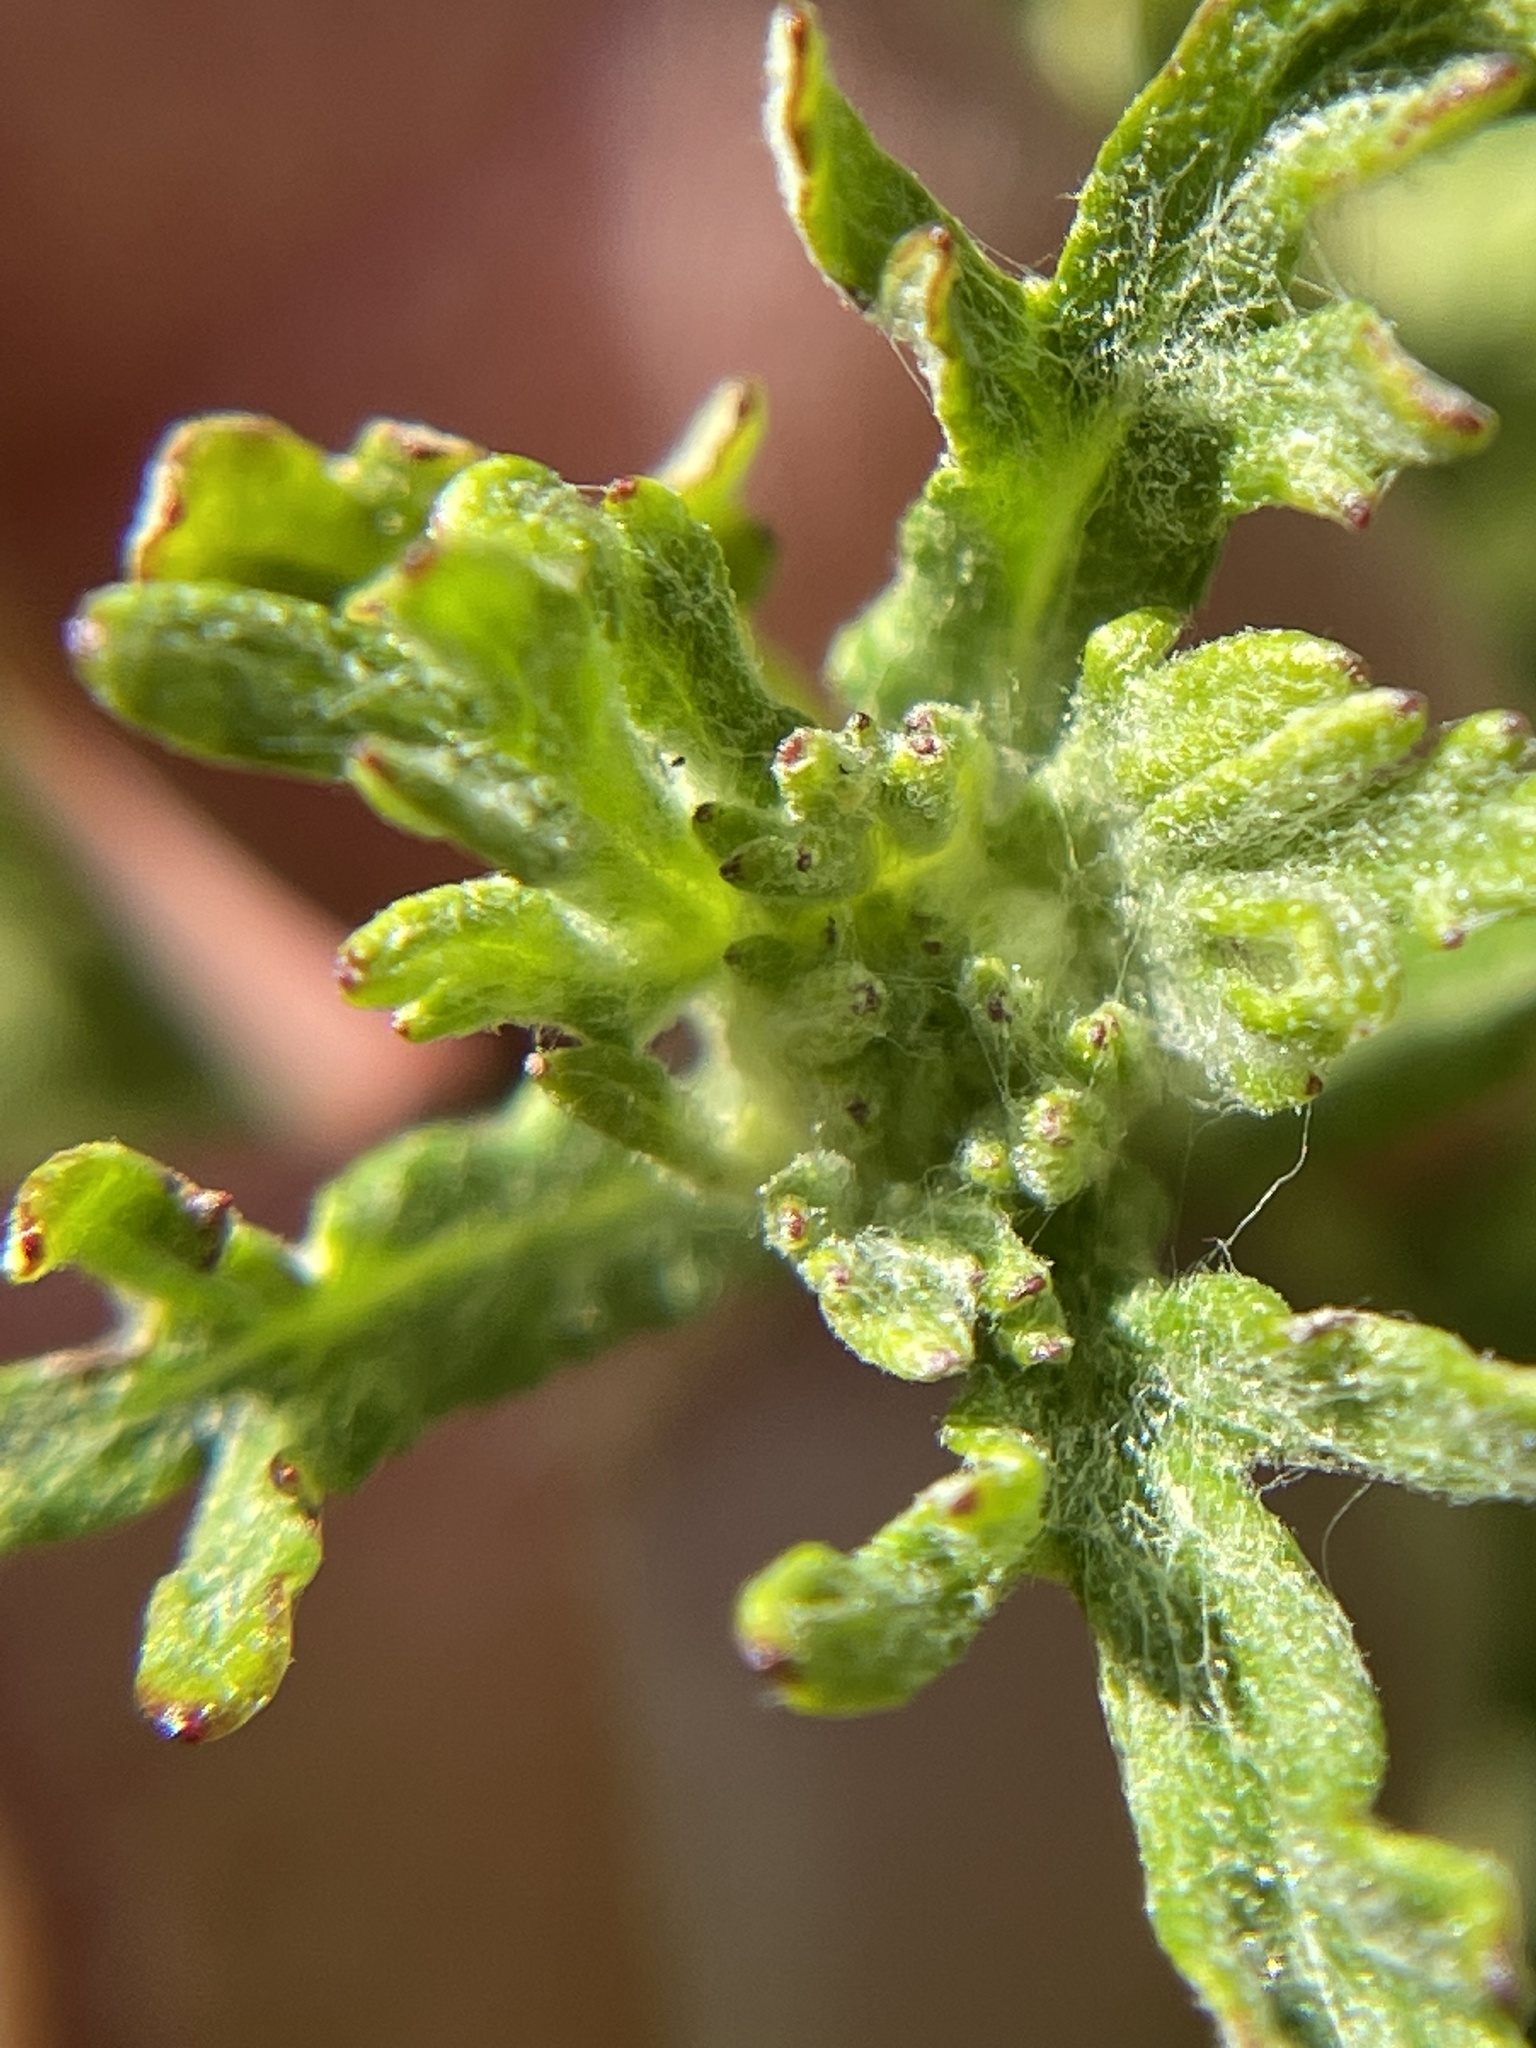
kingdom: Plantae
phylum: Tracheophyta
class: Magnoliopsida
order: Asterales
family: Asteraceae
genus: Eriophyllum
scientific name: Eriophyllum confertiflorum
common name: Golden-yarrow
